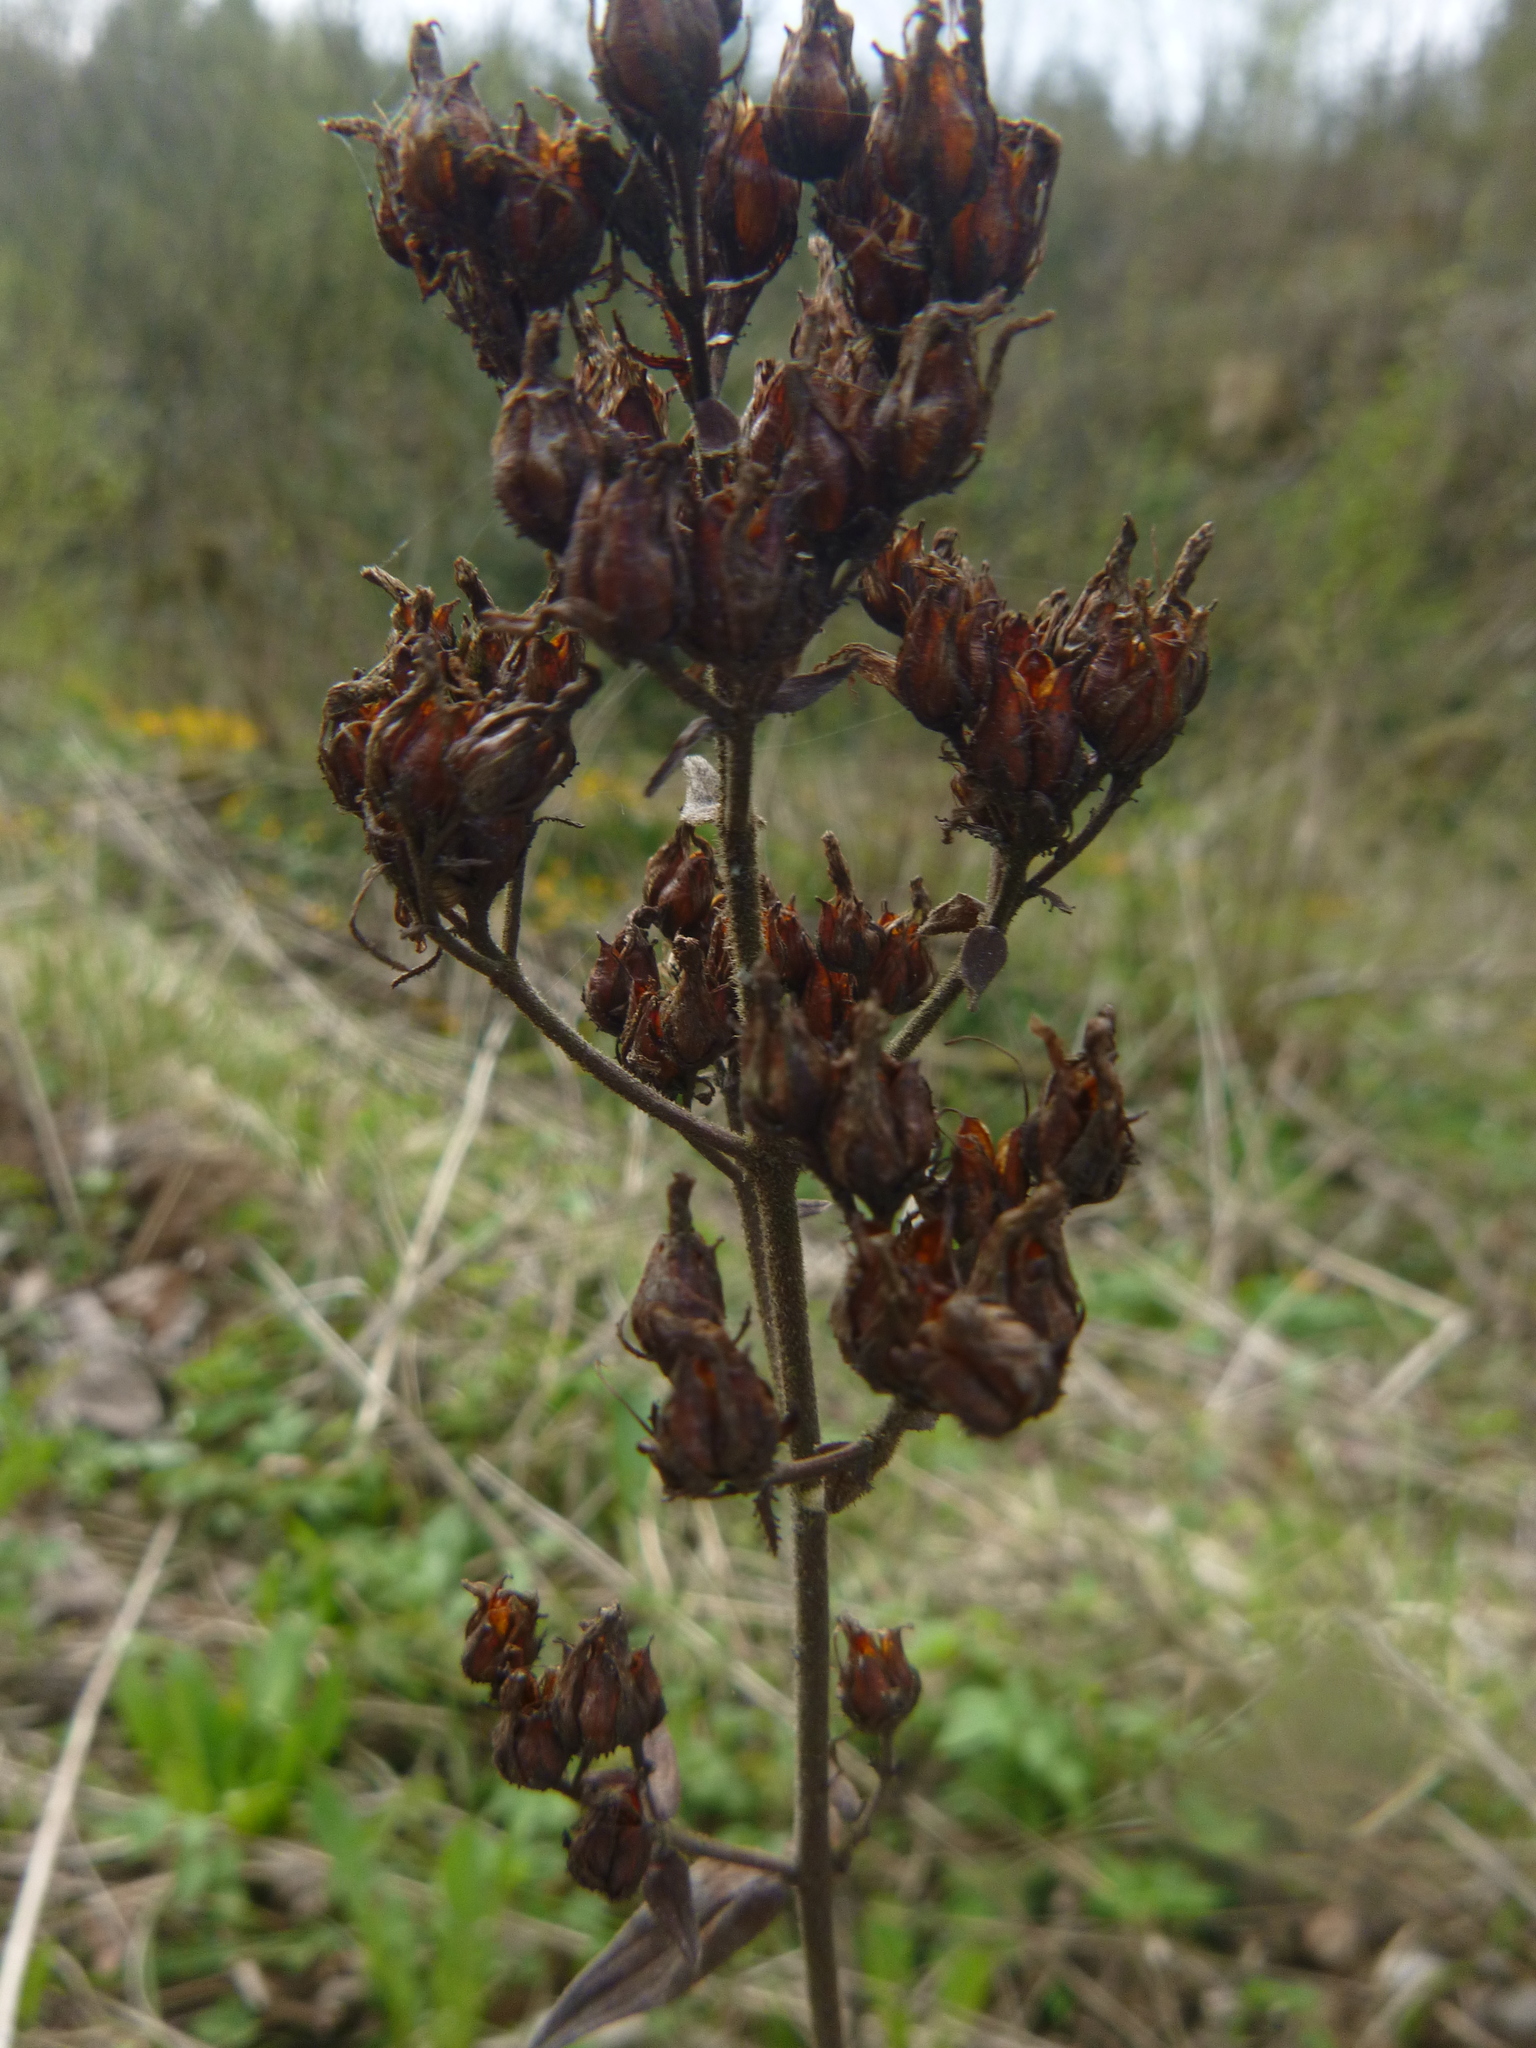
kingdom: Plantae
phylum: Tracheophyta
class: Magnoliopsida
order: Malpighiales
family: Hypericaceae
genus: Hypericum
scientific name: Hypericum hirsutum
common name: Hairy st. john's-wort
